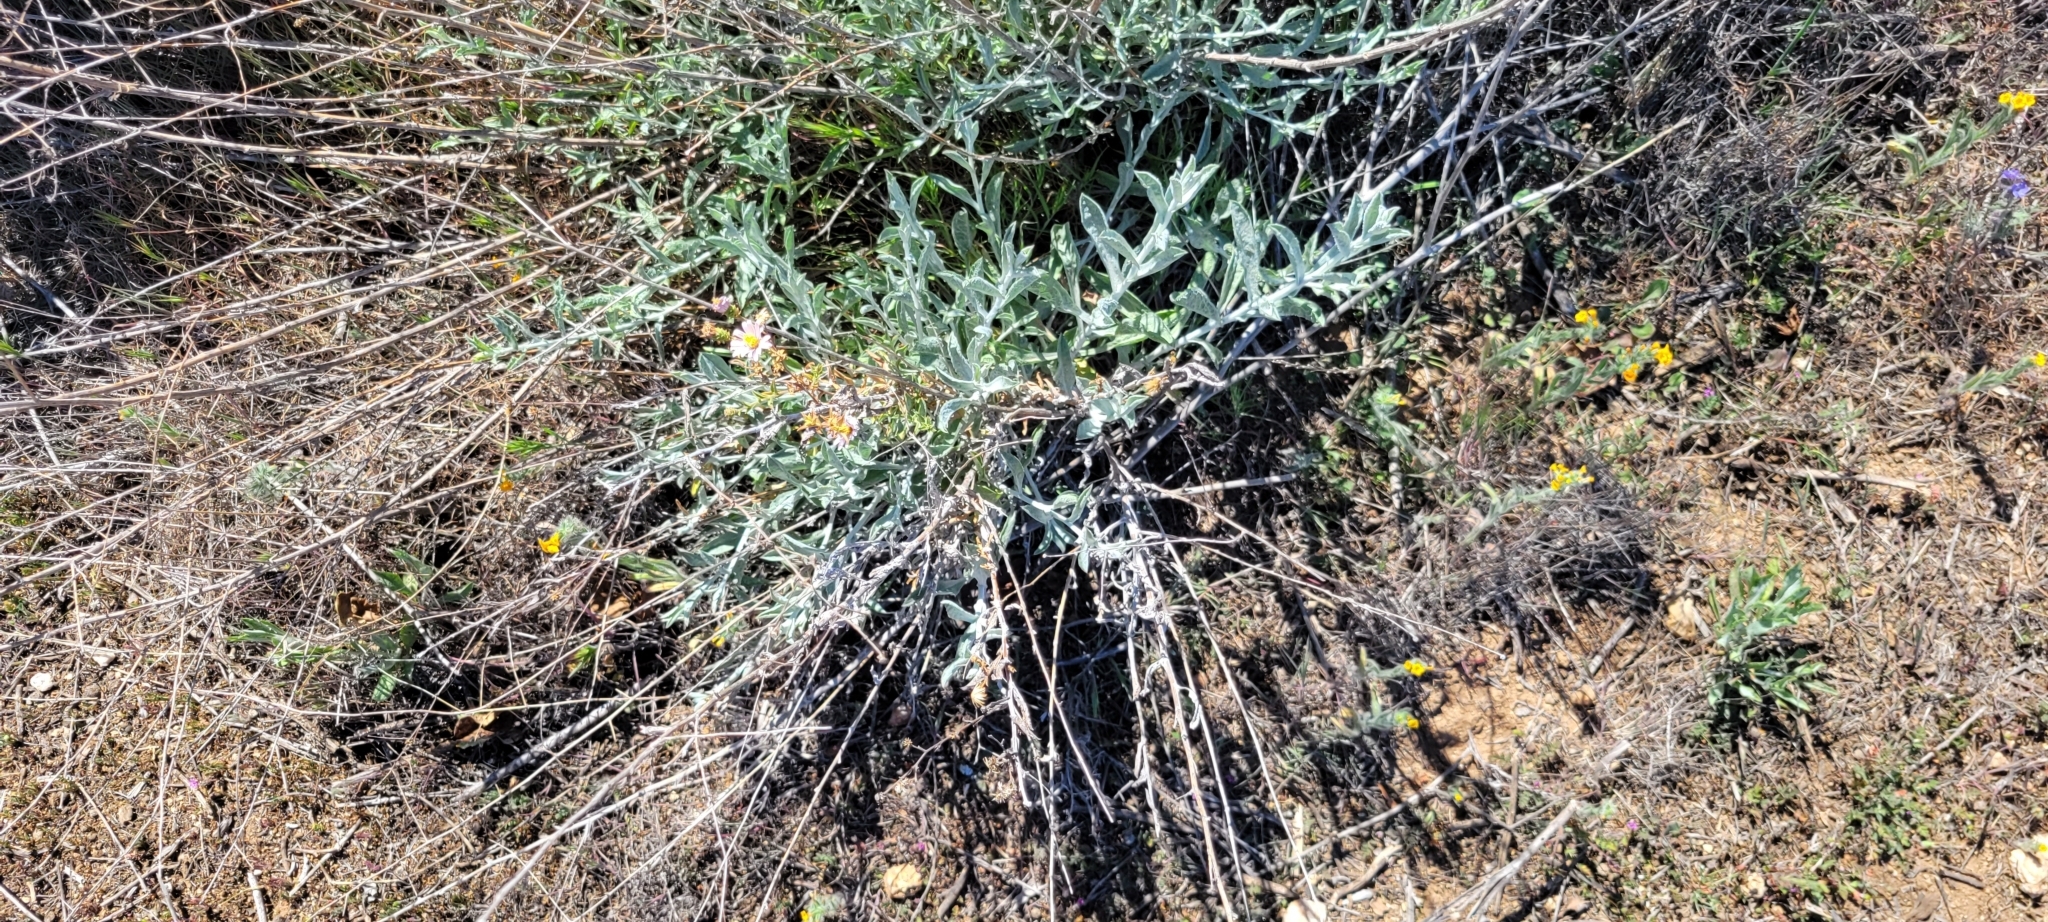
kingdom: Plantae
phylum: Tracheophyta
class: Magnoliopsida
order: Asterales
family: Asteraceae
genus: Corethrogyne
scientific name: Corethrogyne filaginifolia
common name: Sand-aster
